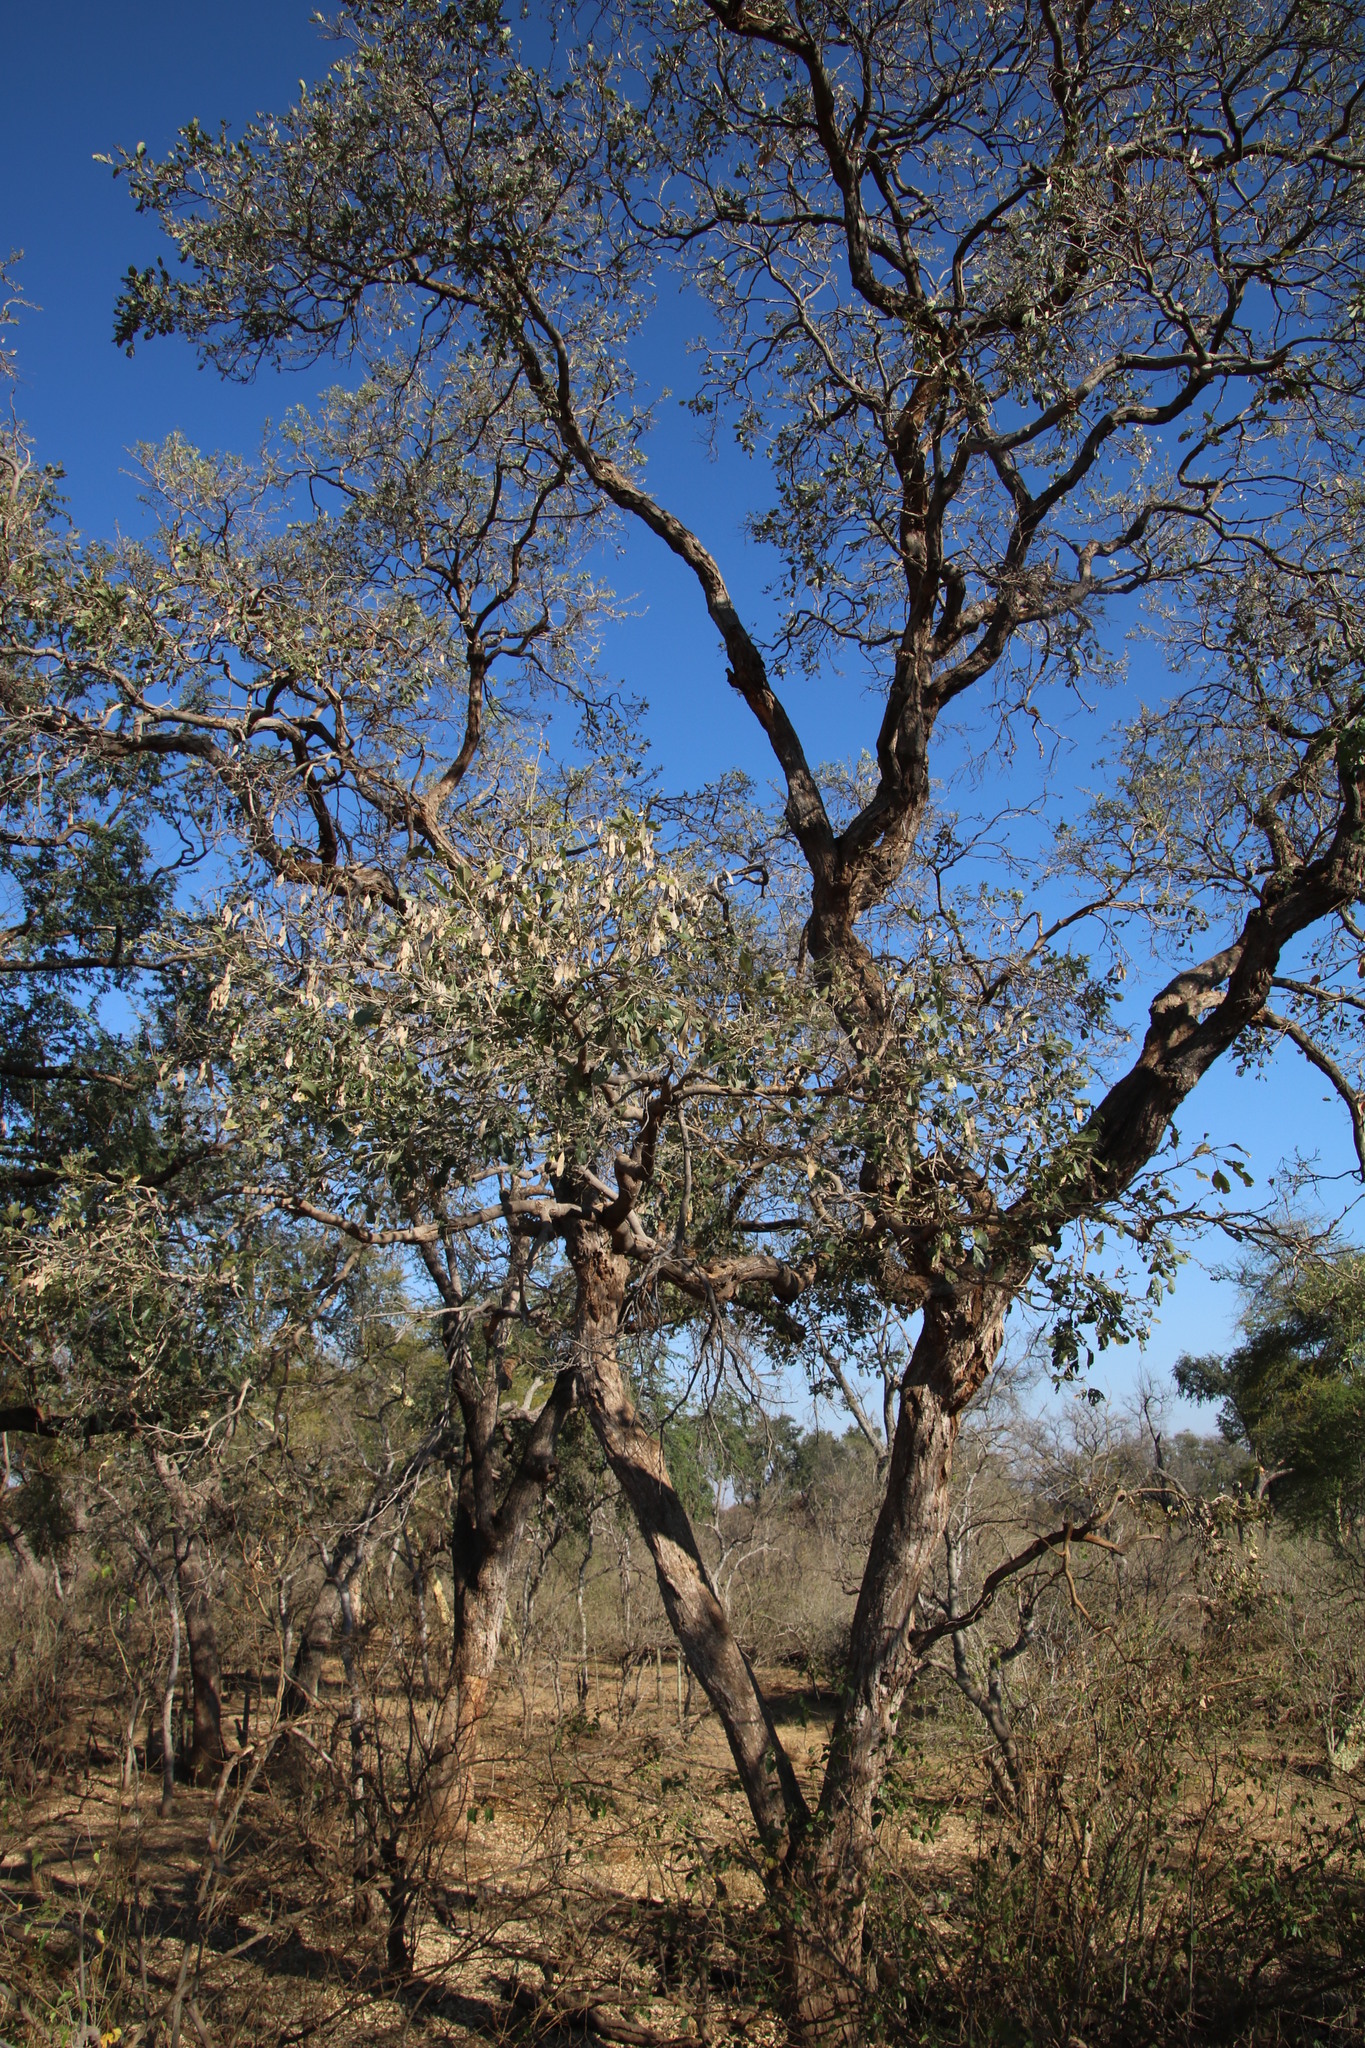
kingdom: Plantae
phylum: Tracheophyta
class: Magnoliopsida
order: Fabales
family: Fabaceae
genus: Philenoptera
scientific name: Philenoptera violacea
